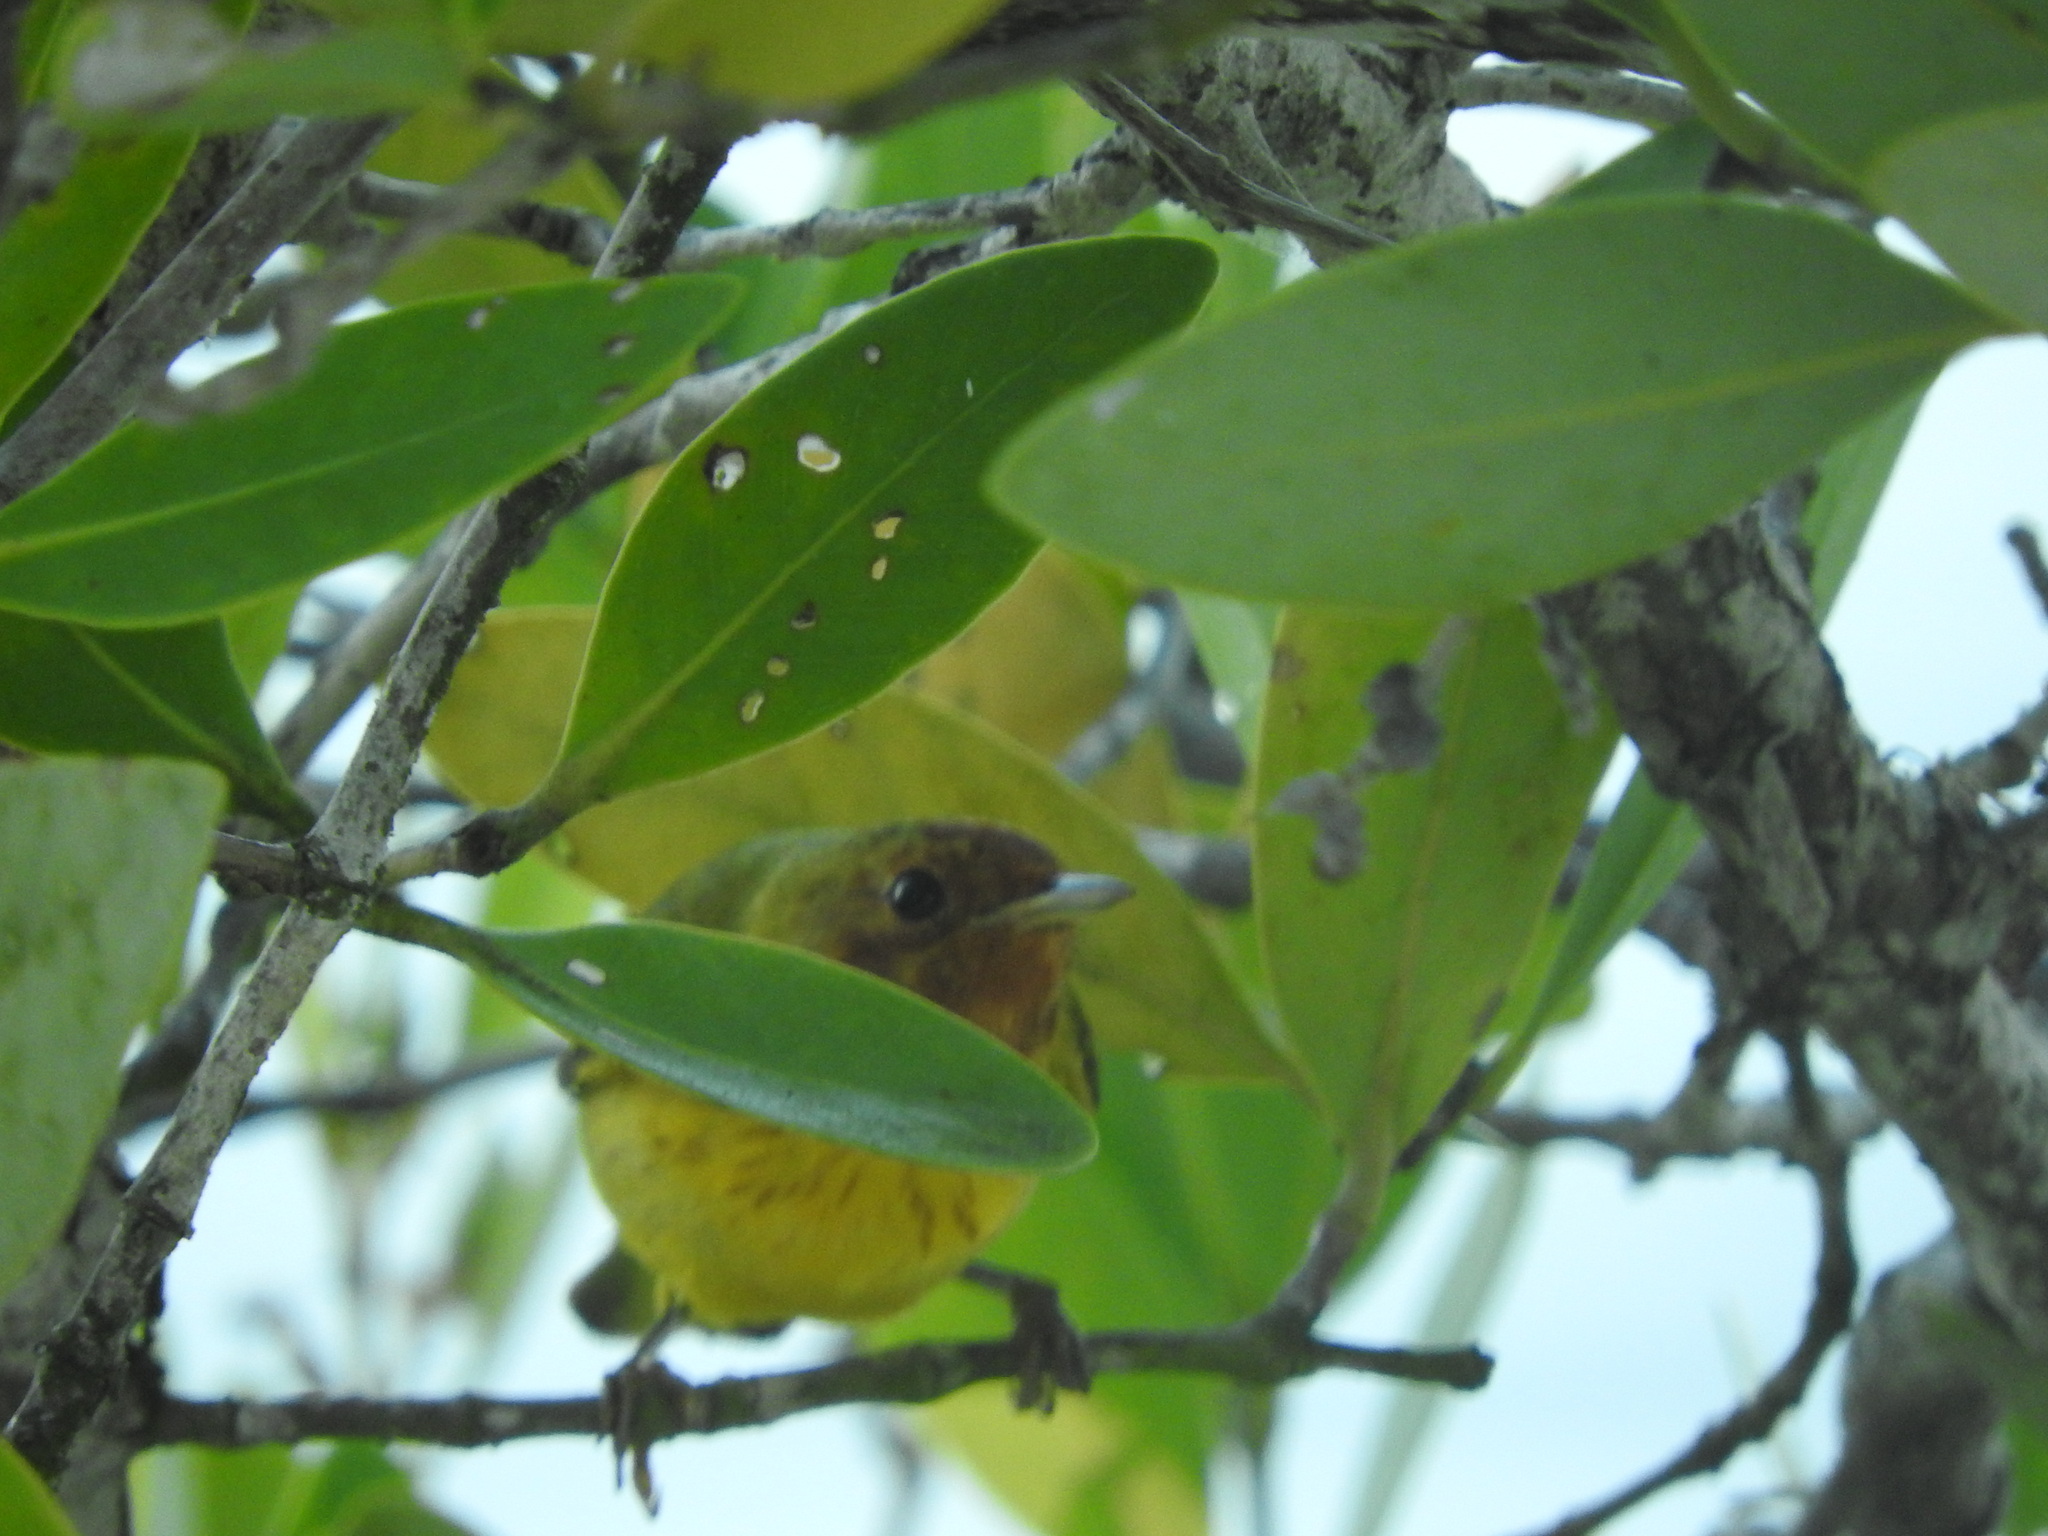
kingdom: Animalia
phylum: Chordata
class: Aves
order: Passeriformes
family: Parulidae
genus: Setophaga
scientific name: Setophaga petechia
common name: Yellow warbler
